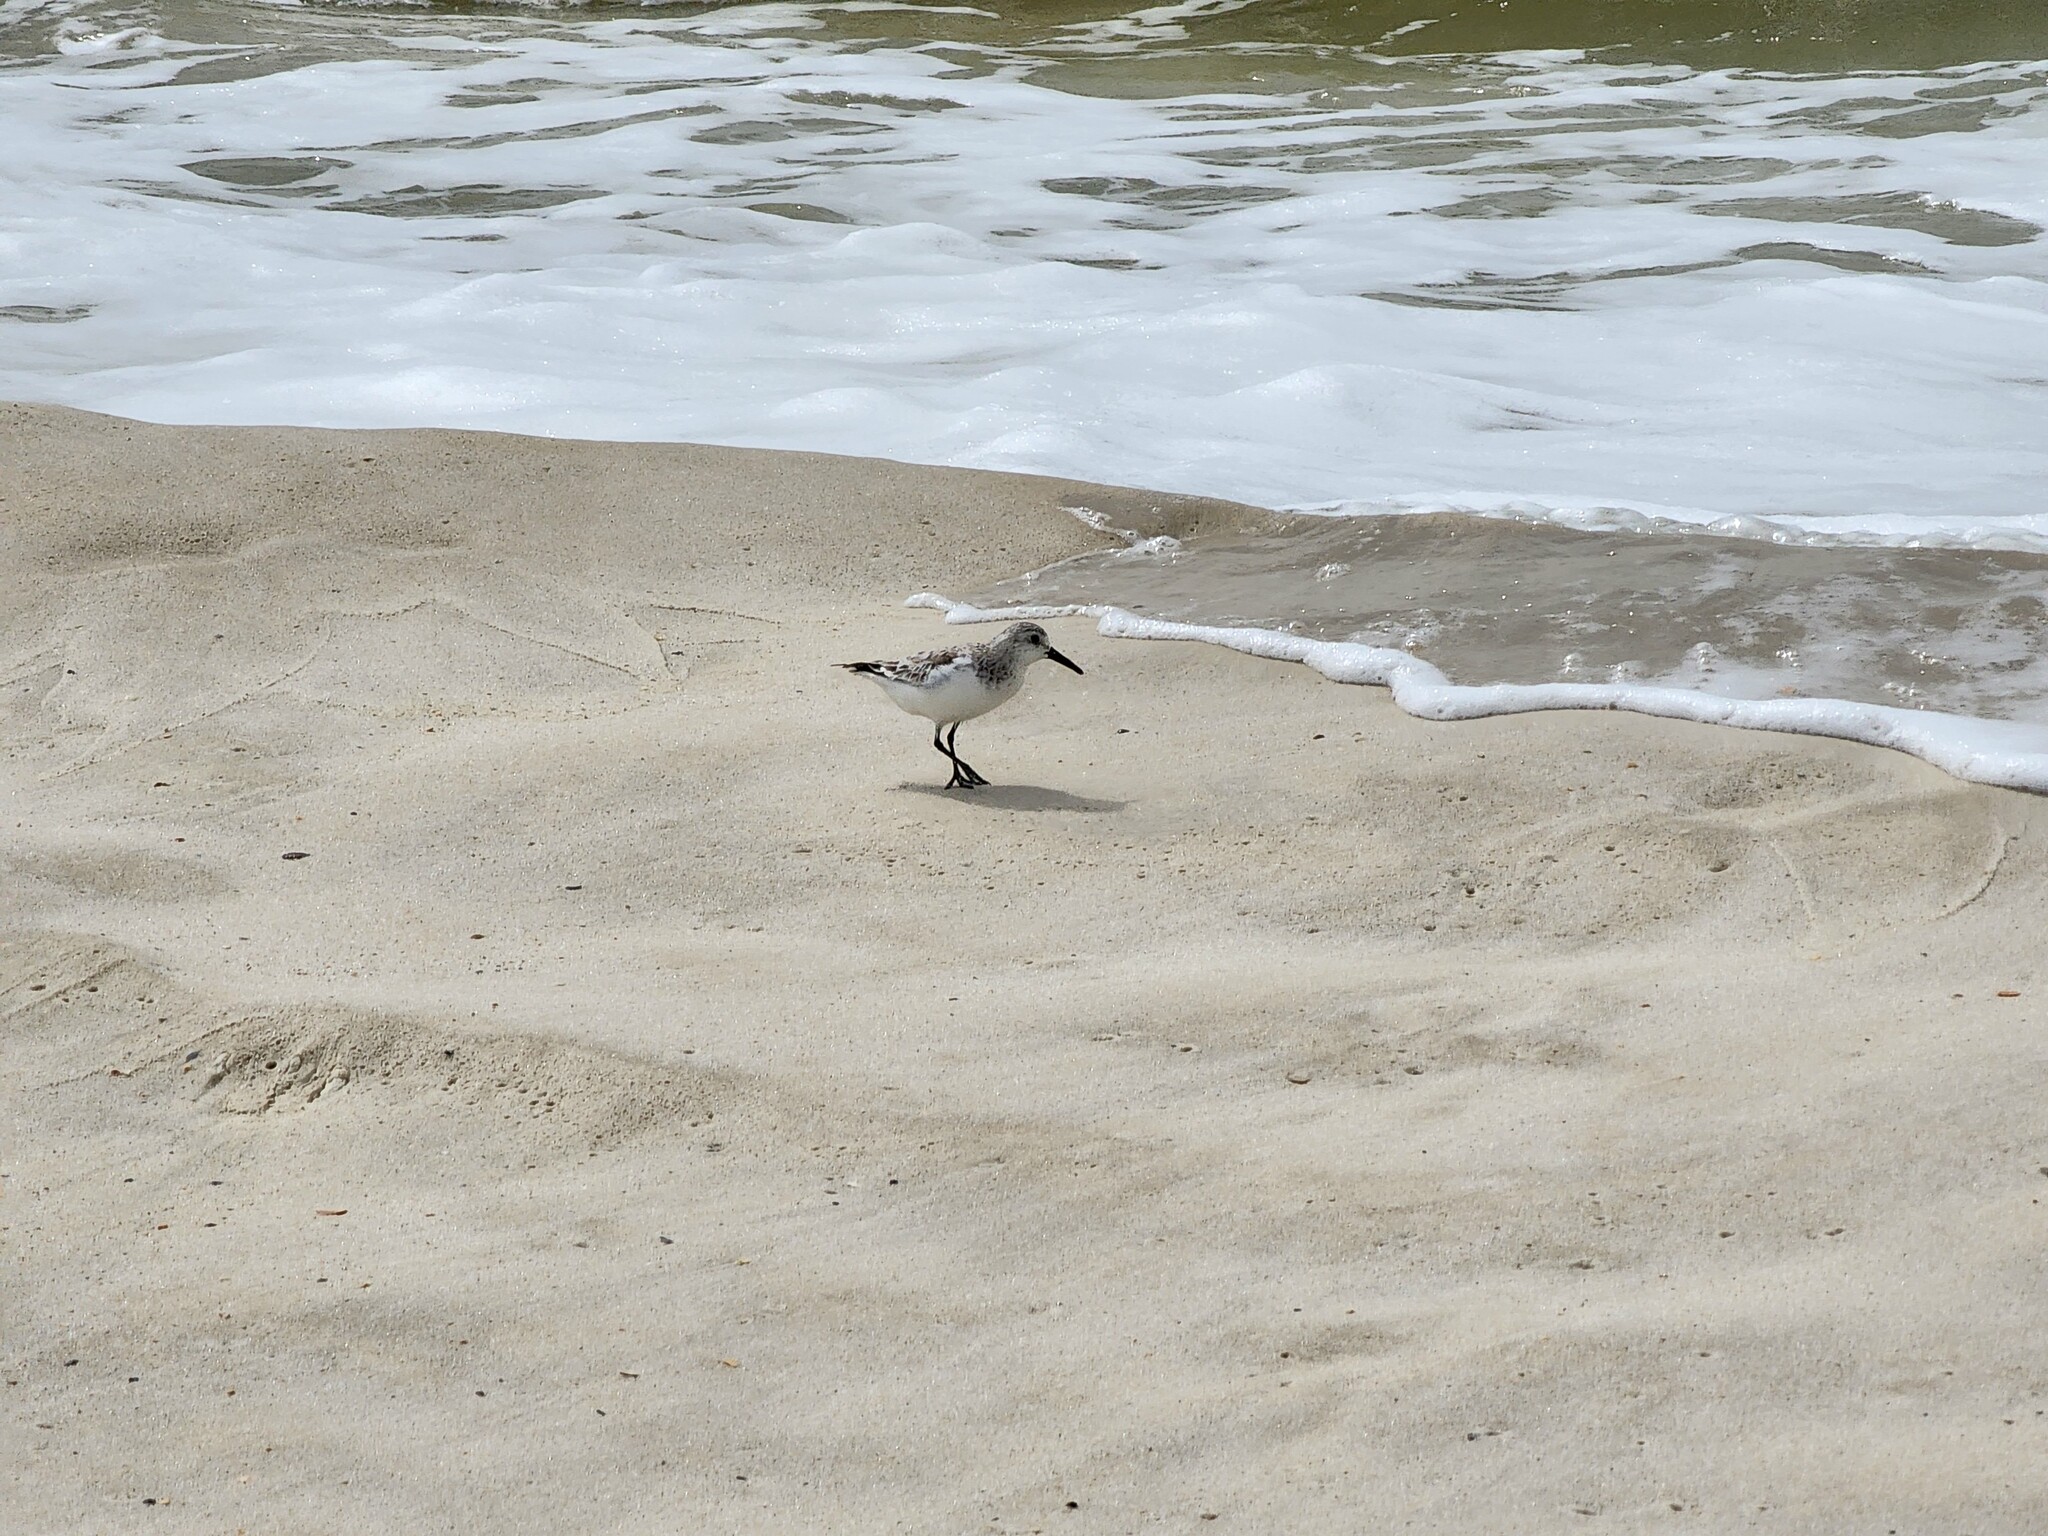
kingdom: Animalia
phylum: Chordata
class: Aves
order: Charadriiformes
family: Scolopacidae
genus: Calidris
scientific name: Calidris alba
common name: Sanderling
